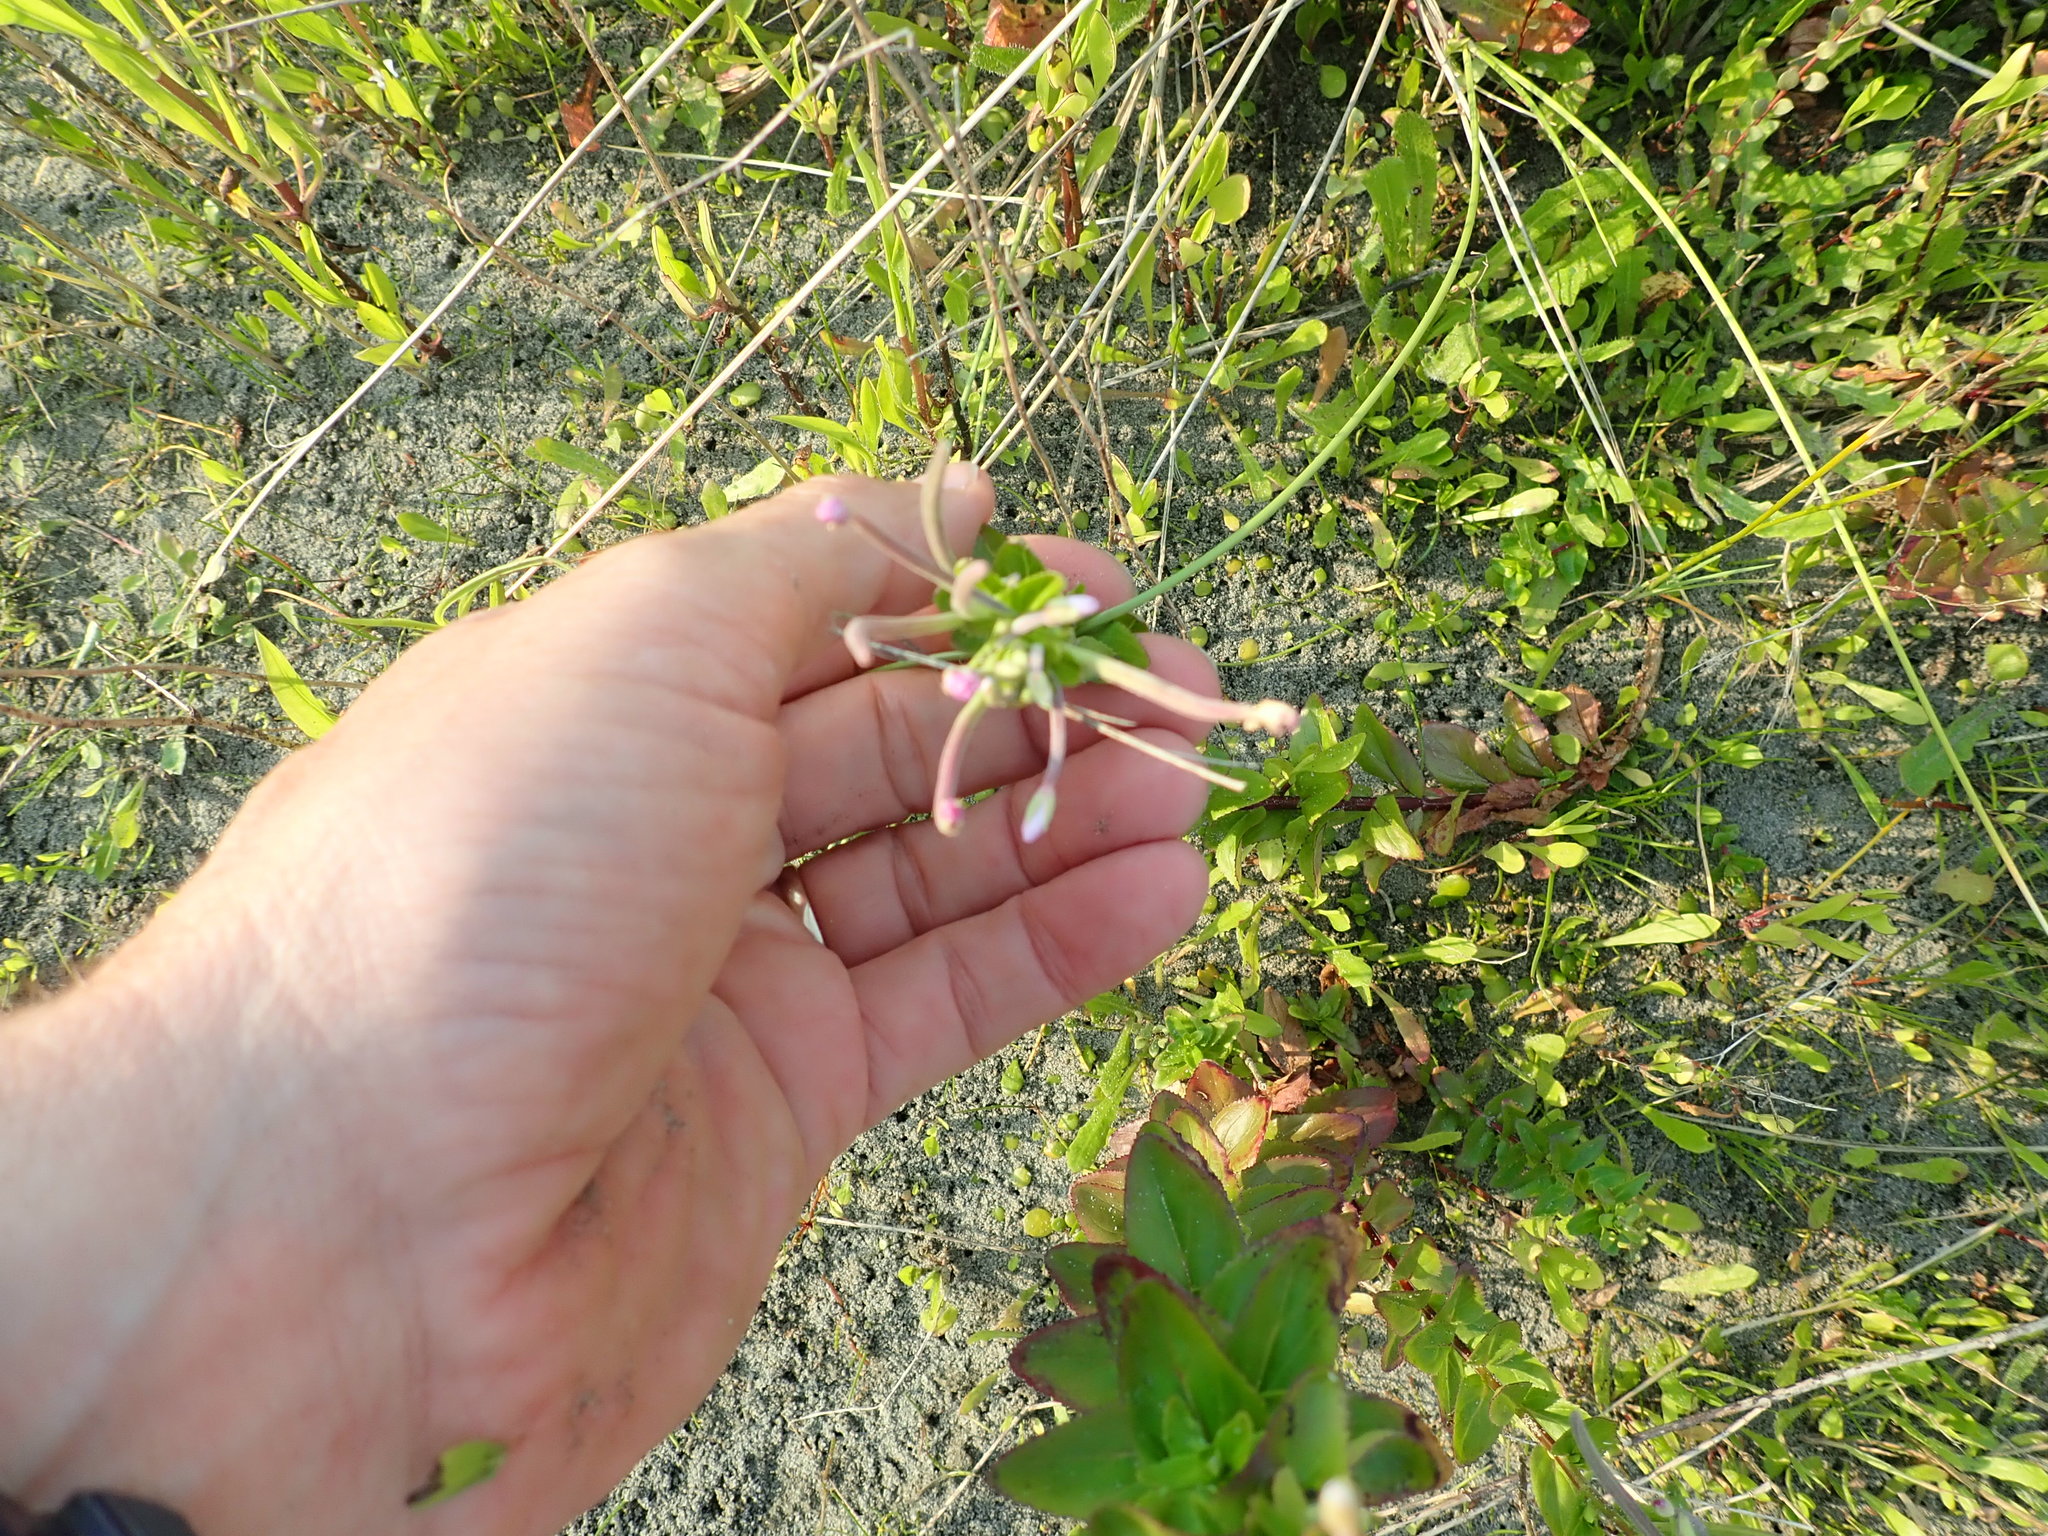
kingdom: Plantae
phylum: Tracheophyta
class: Magnoliopsida
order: Myrtales
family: Onagraceae
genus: Epilobium
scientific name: Epilobium billardiereanum
